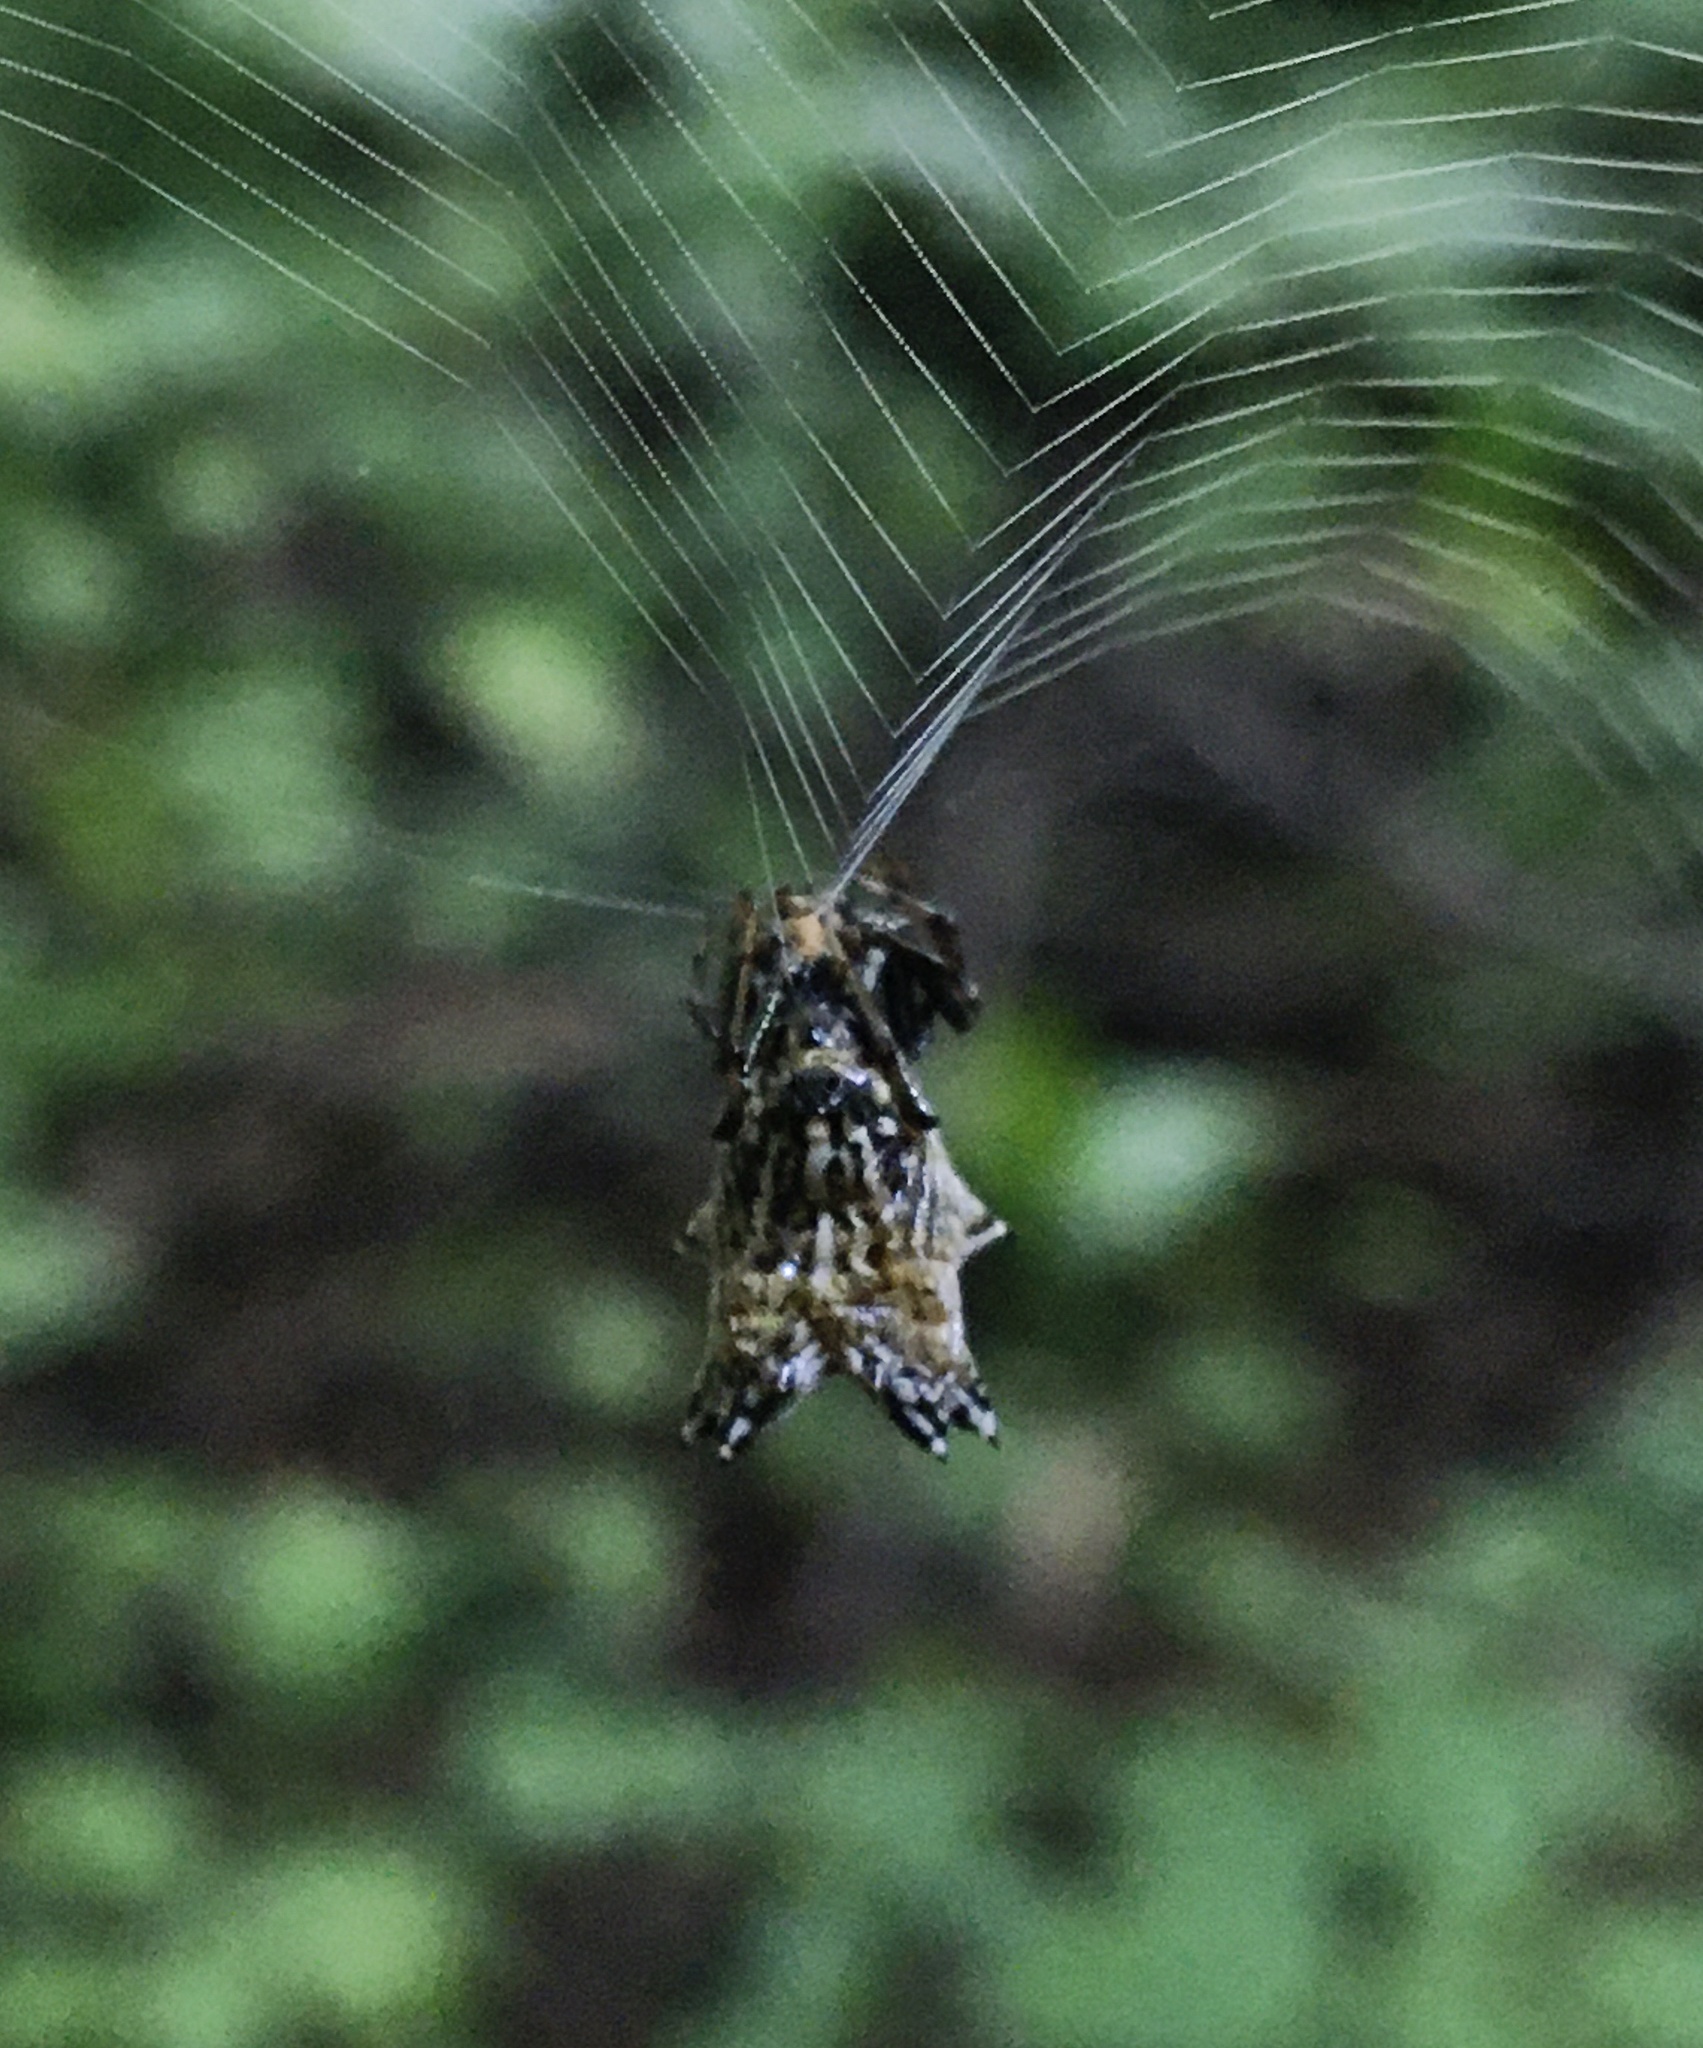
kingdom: Animalia
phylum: Arthropoda
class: Arachnida
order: Araneae
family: Araneidae
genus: Micrathena
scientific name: Micrathena gracilis
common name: Orb weavers
